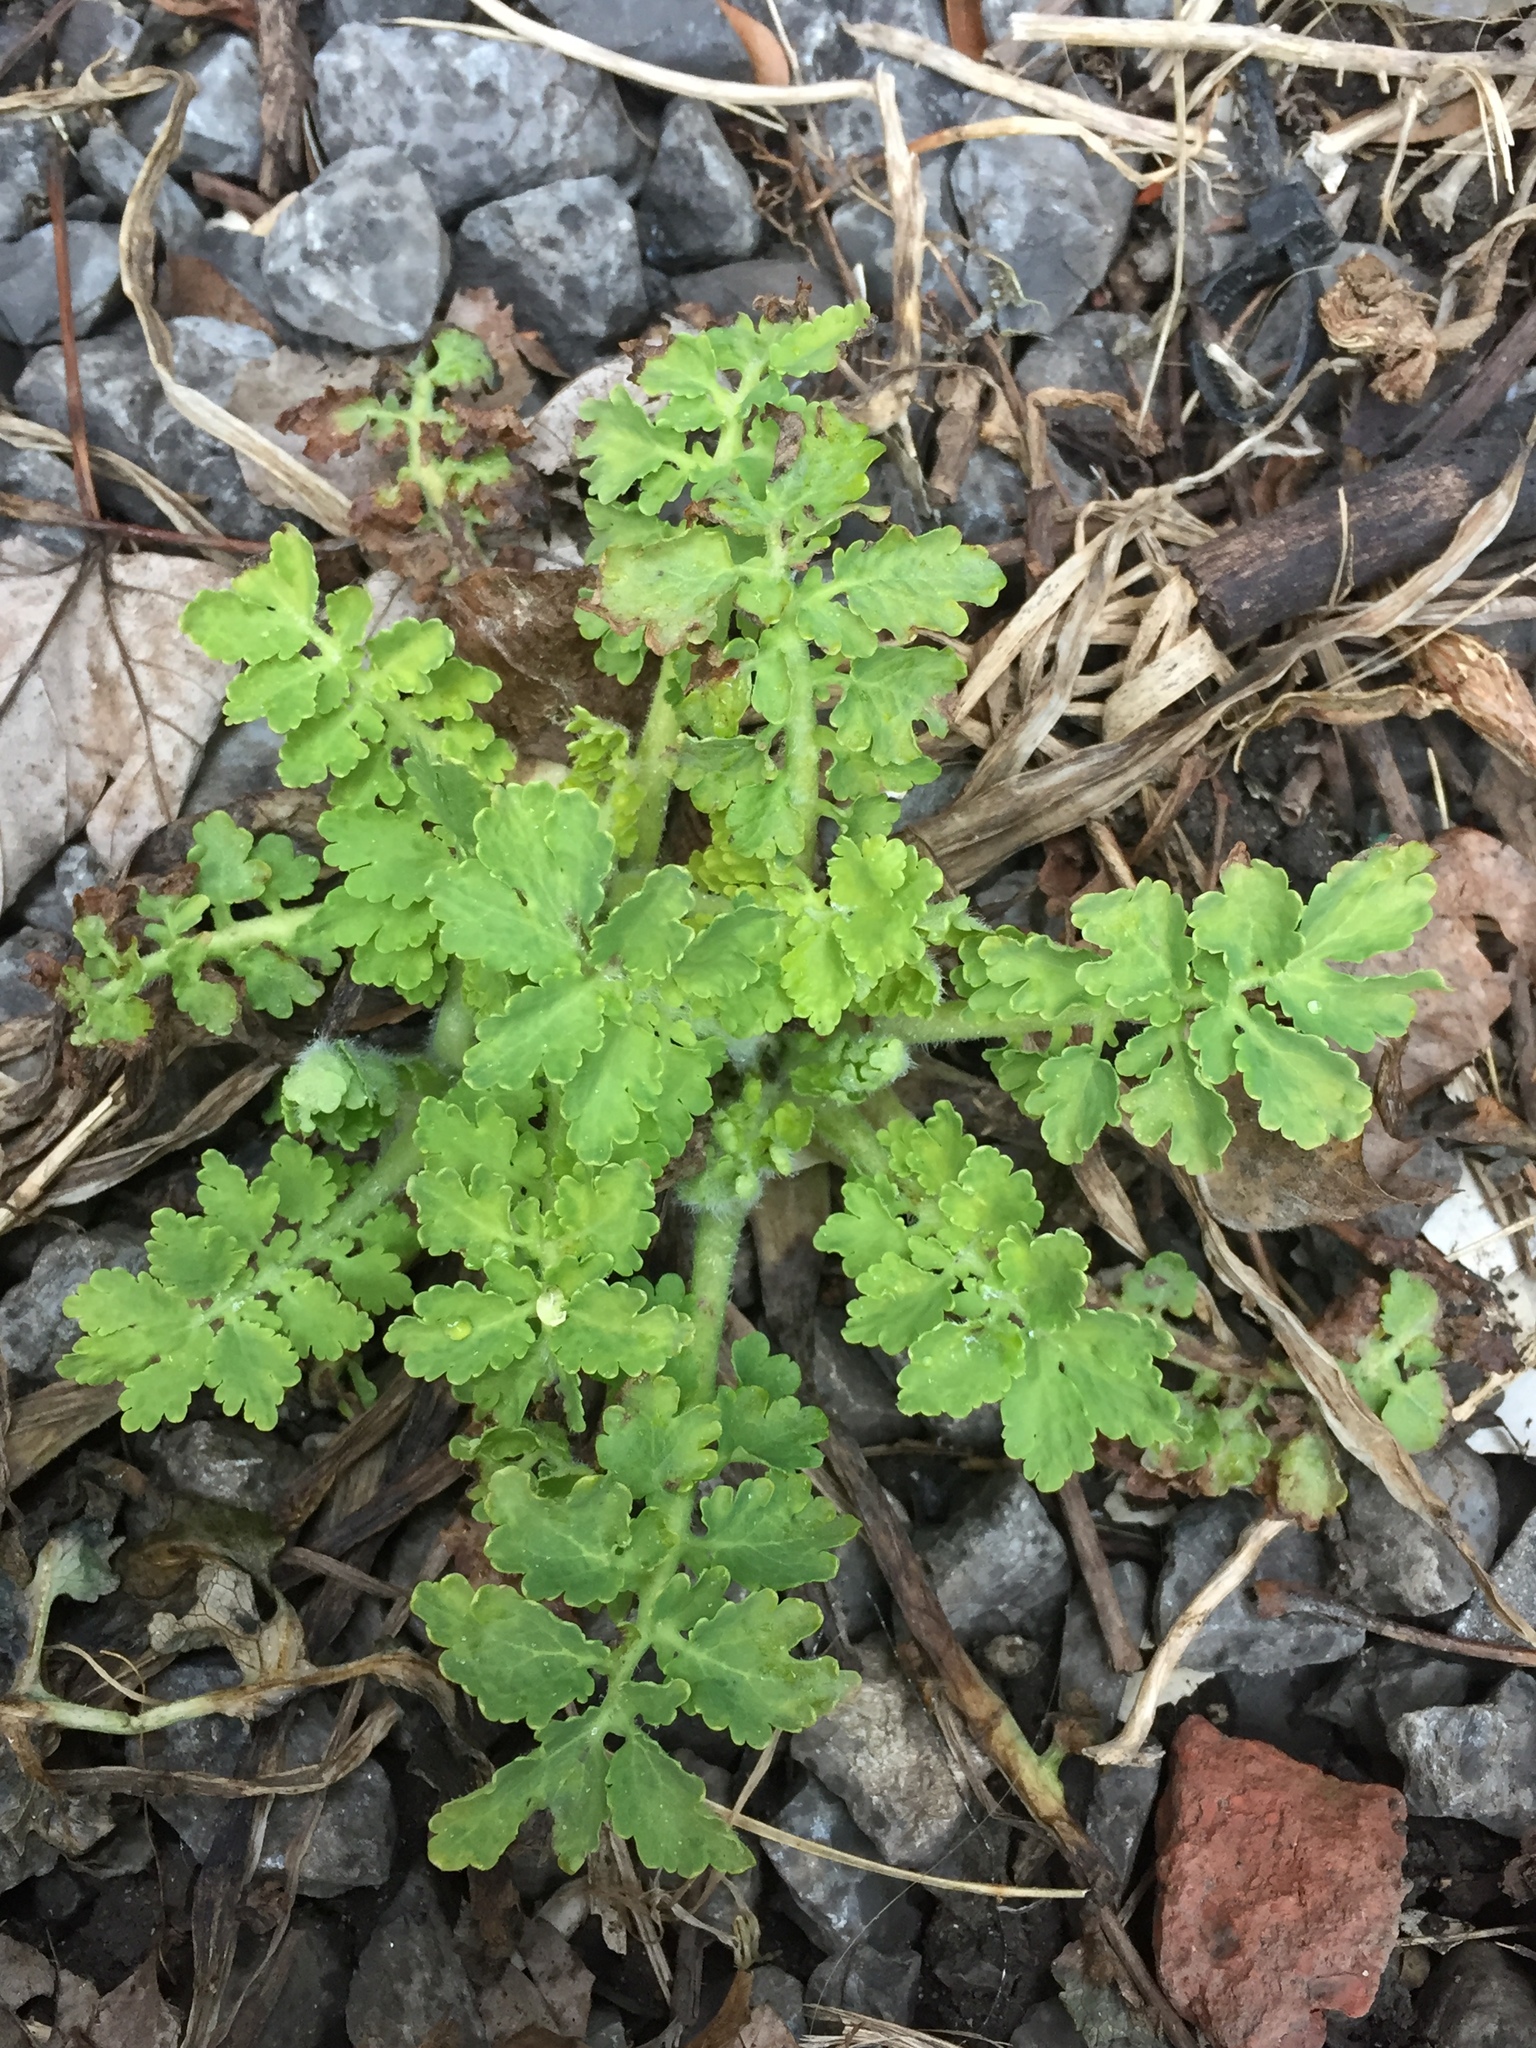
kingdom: Plantae
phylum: Tracheophyta
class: Magnoliopsida
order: Ranunculales
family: Papaveraceae
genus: Chelidonium
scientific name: Chelidonium majus
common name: Greater celandine
